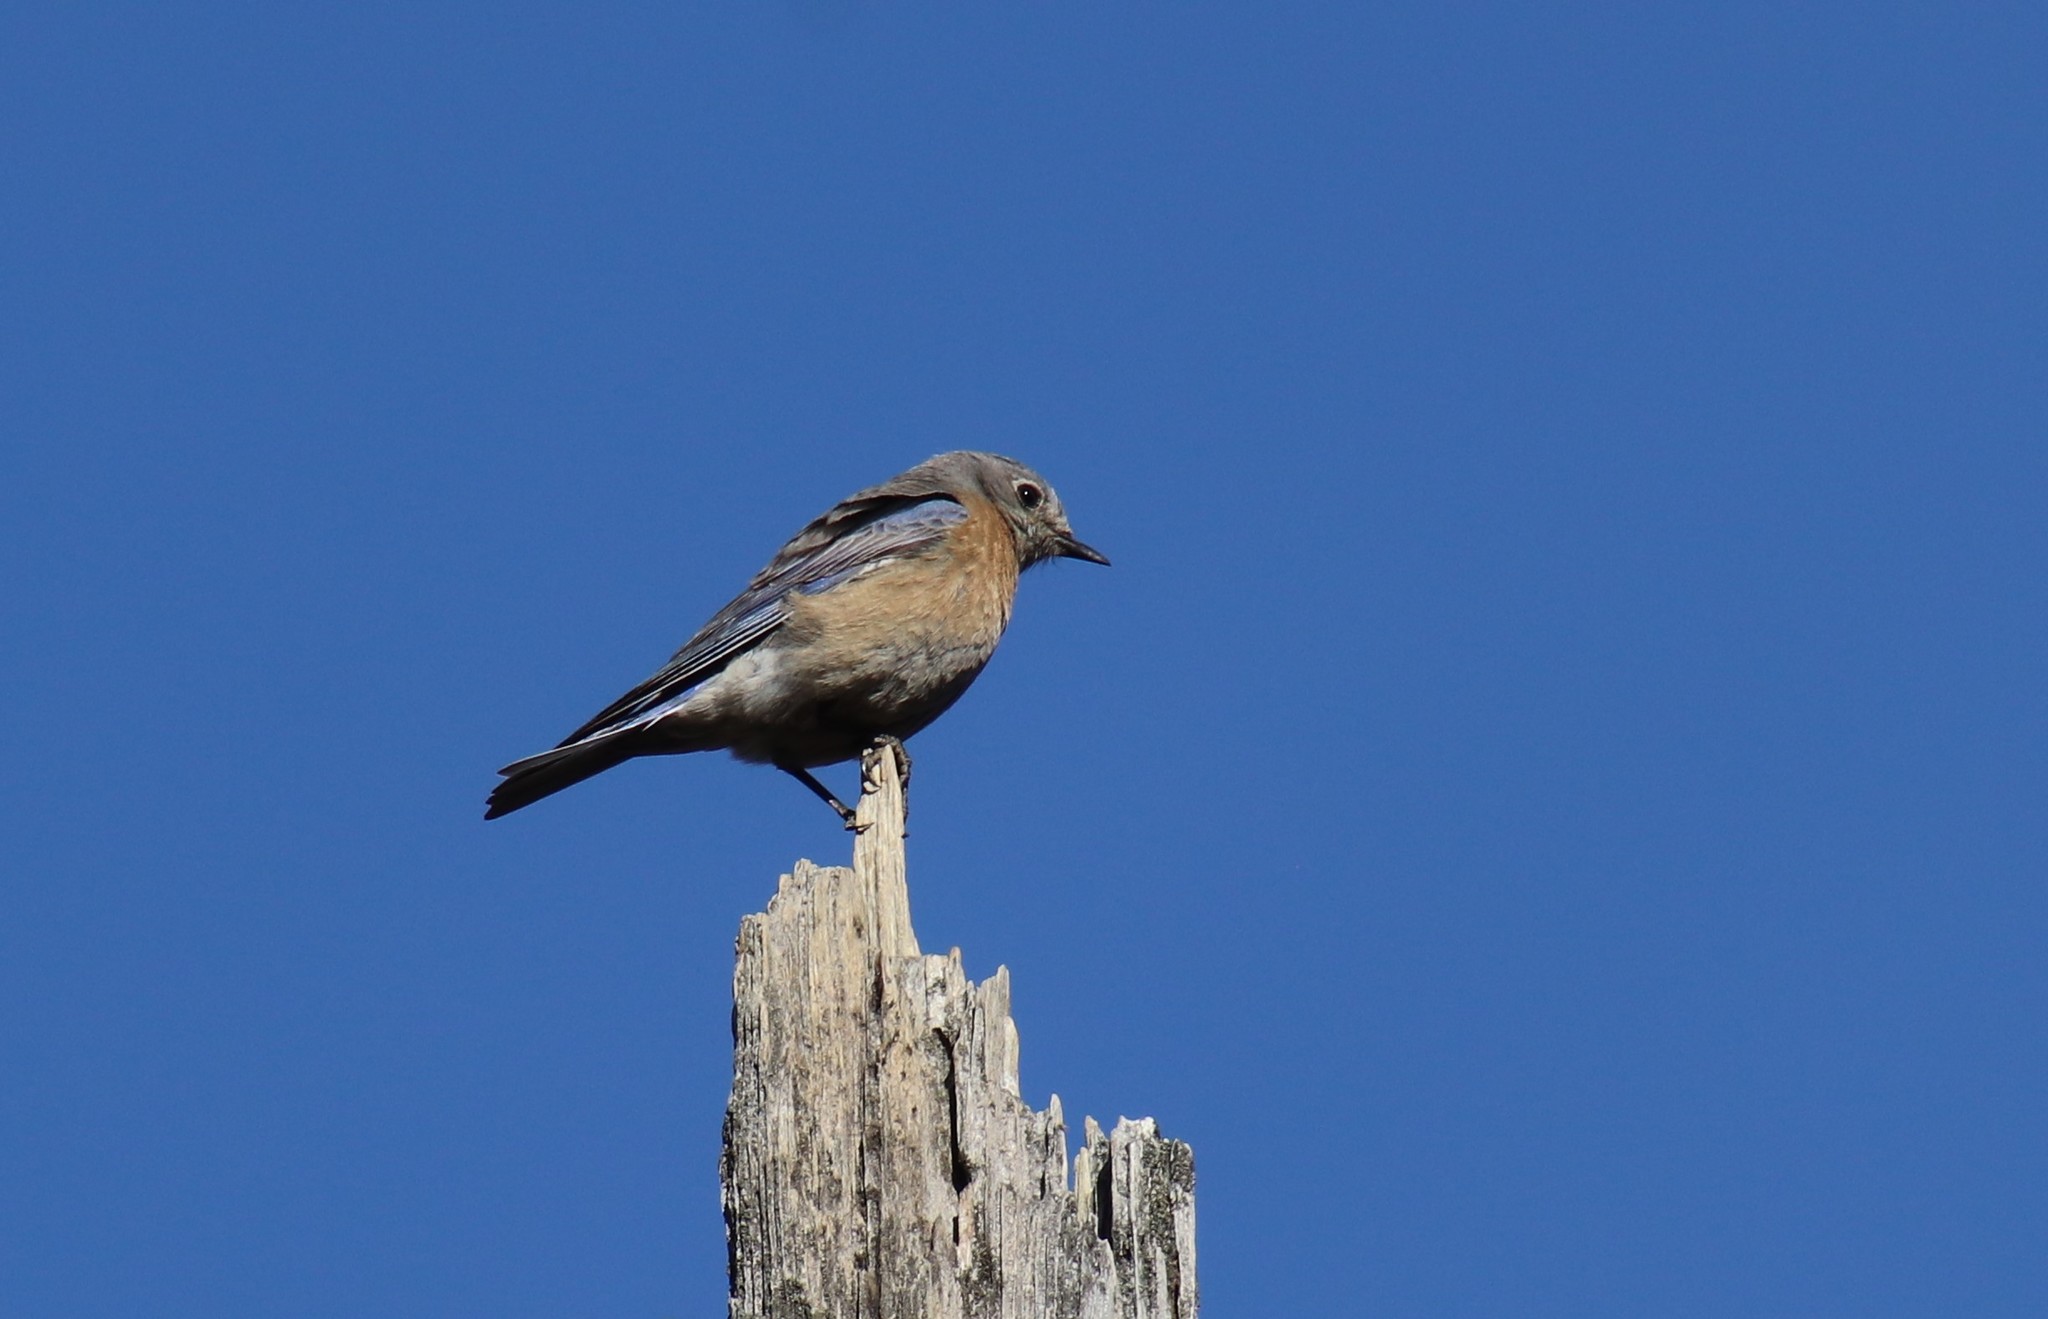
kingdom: Animalia
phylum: Chordata
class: Aves
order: Passeriformes
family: Turdidae
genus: Sialia
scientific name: Sialia mexicana
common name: Western bluebird
